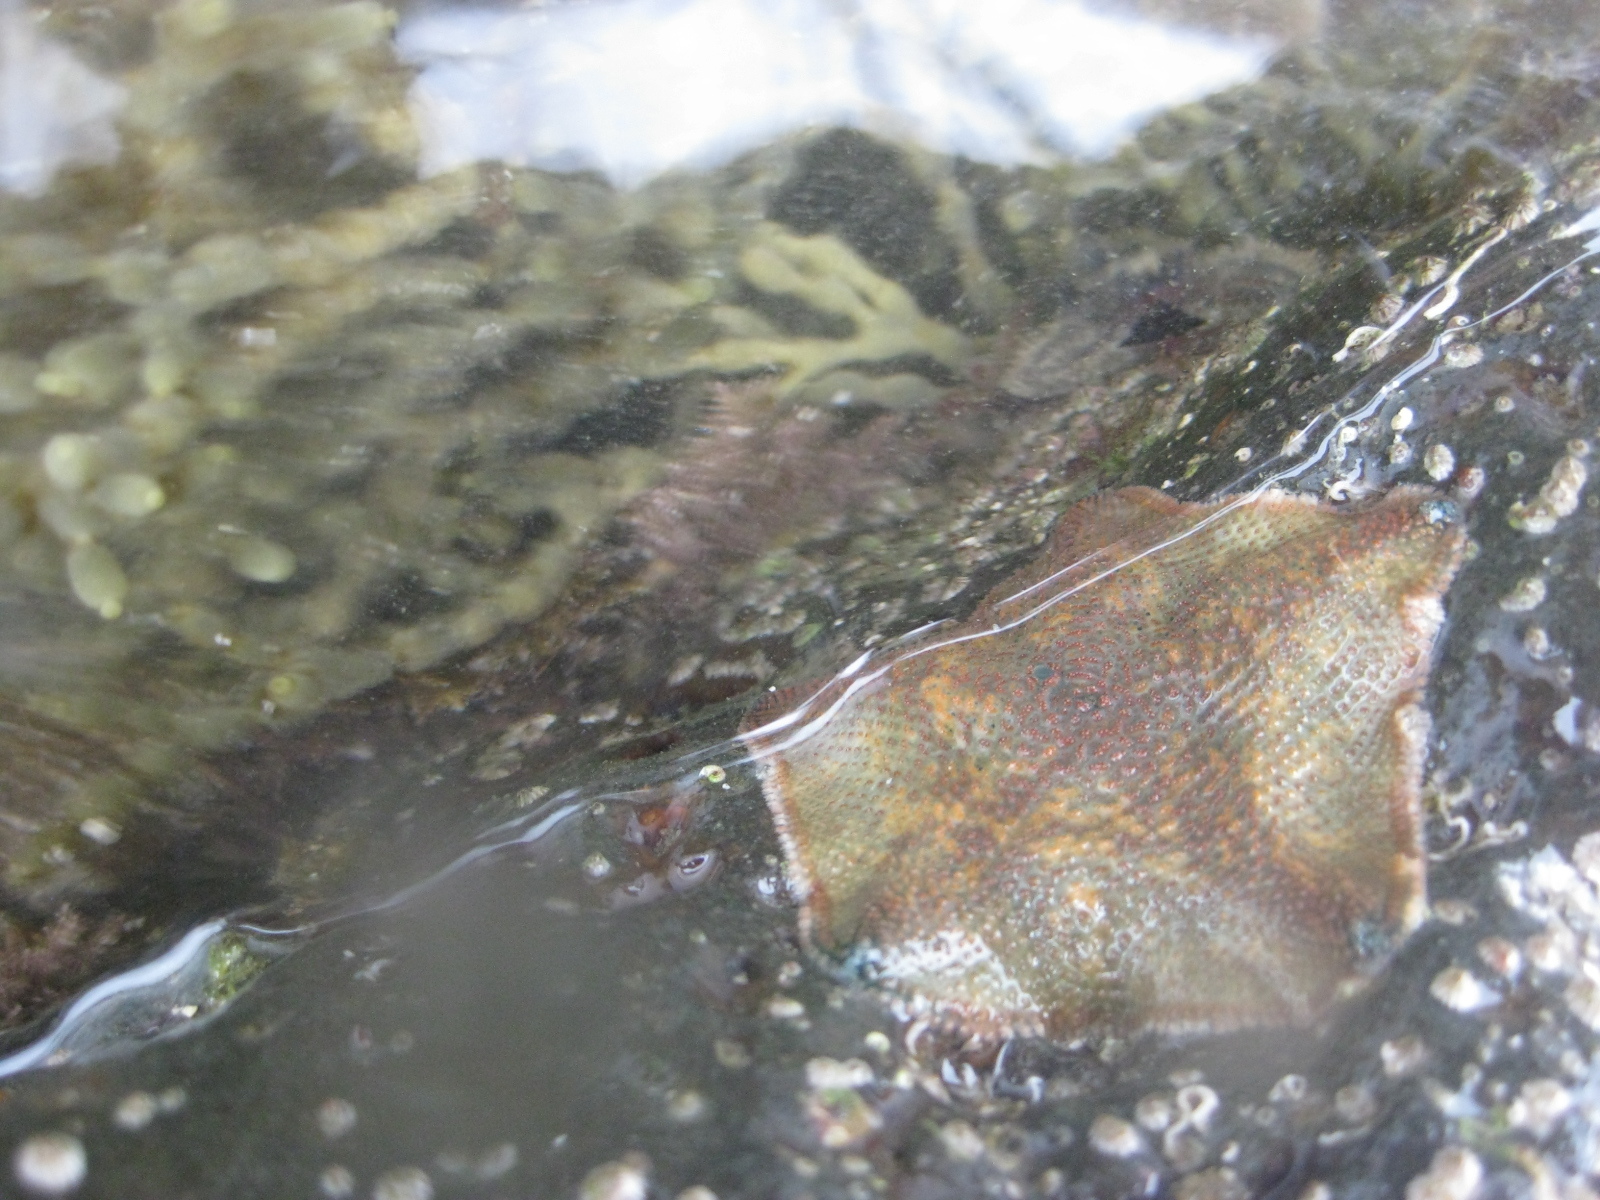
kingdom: Animalia
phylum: Echinodermata
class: Asteroidea
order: Valvatida
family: Asterinidae
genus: Patiriella
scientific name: Patiriella regularis
